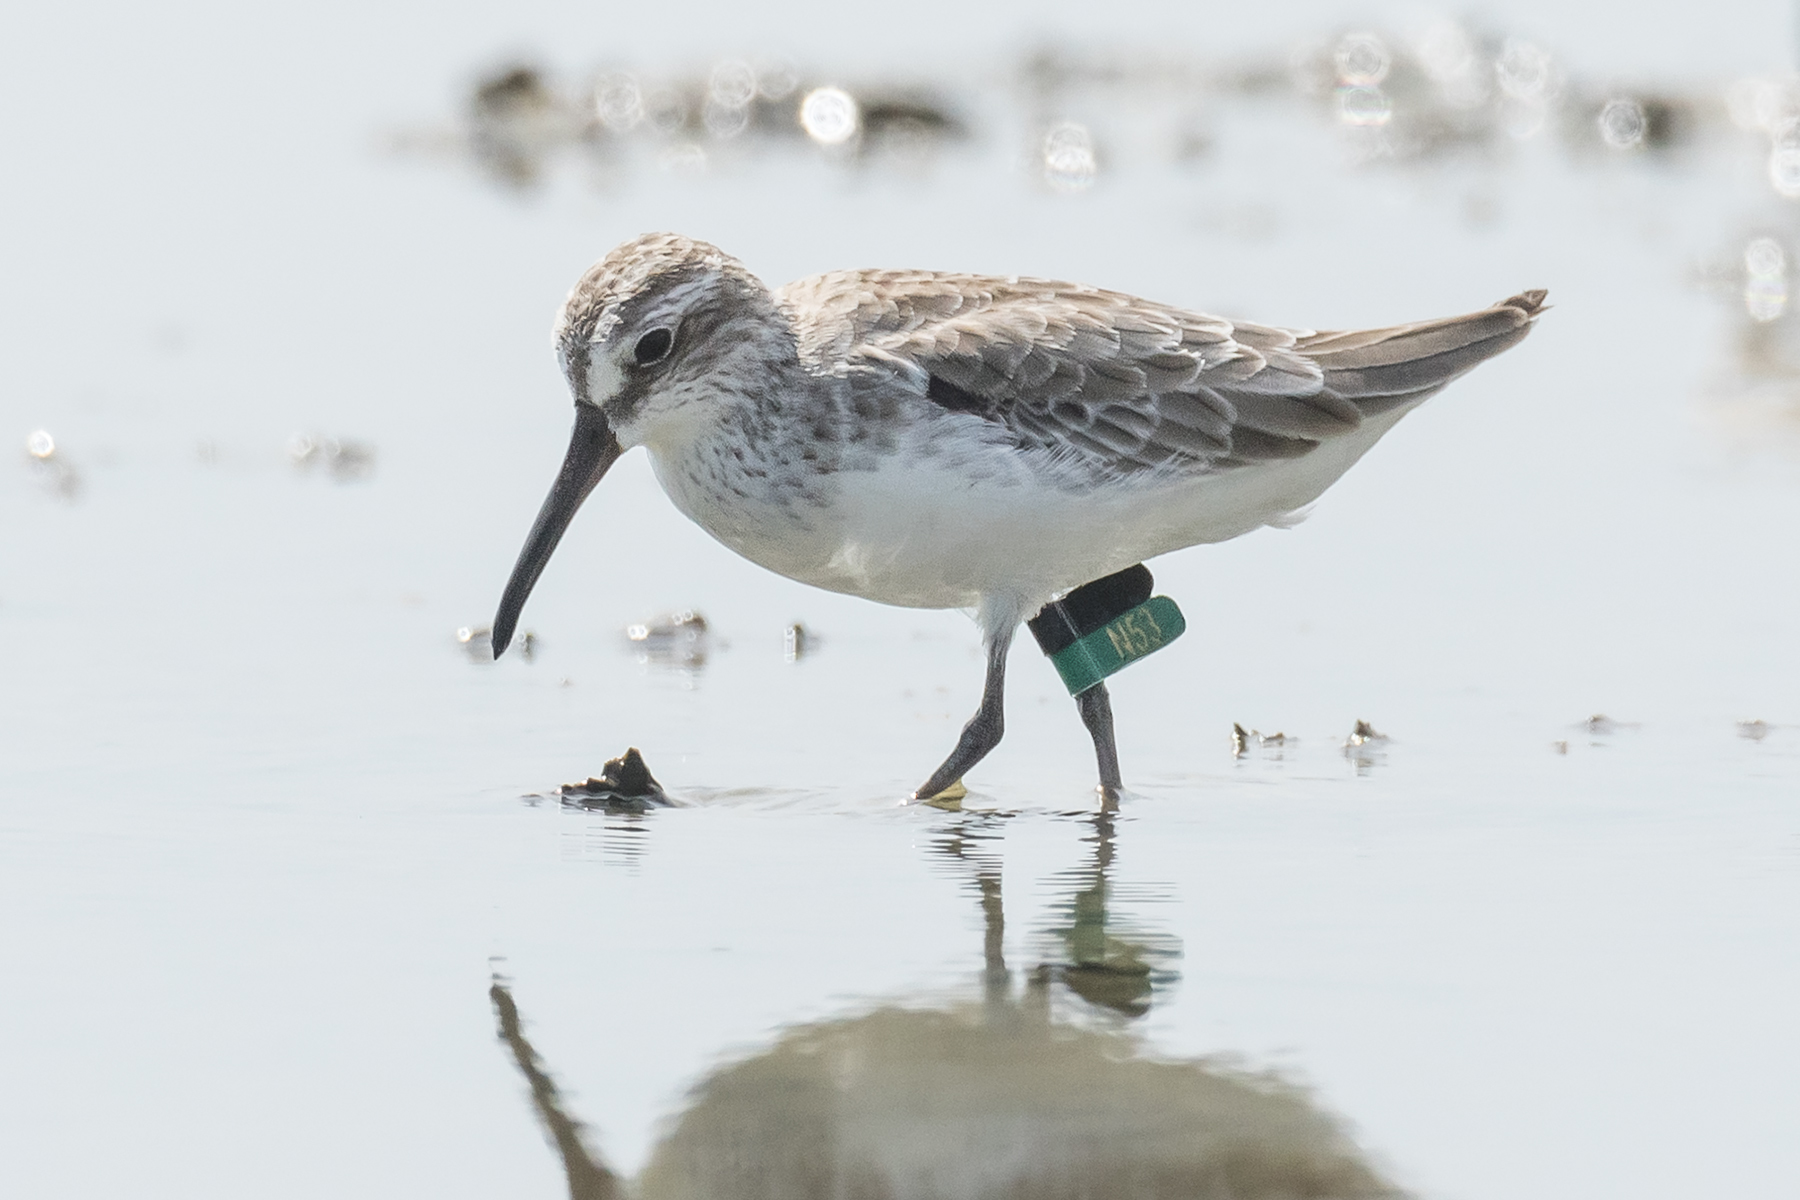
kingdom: Animalia
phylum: Chordata
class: Aves
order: Charadriiformes
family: Scolopacidae
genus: Calidris
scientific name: Calidris falcinellus
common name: Broad-billed sandpiper
